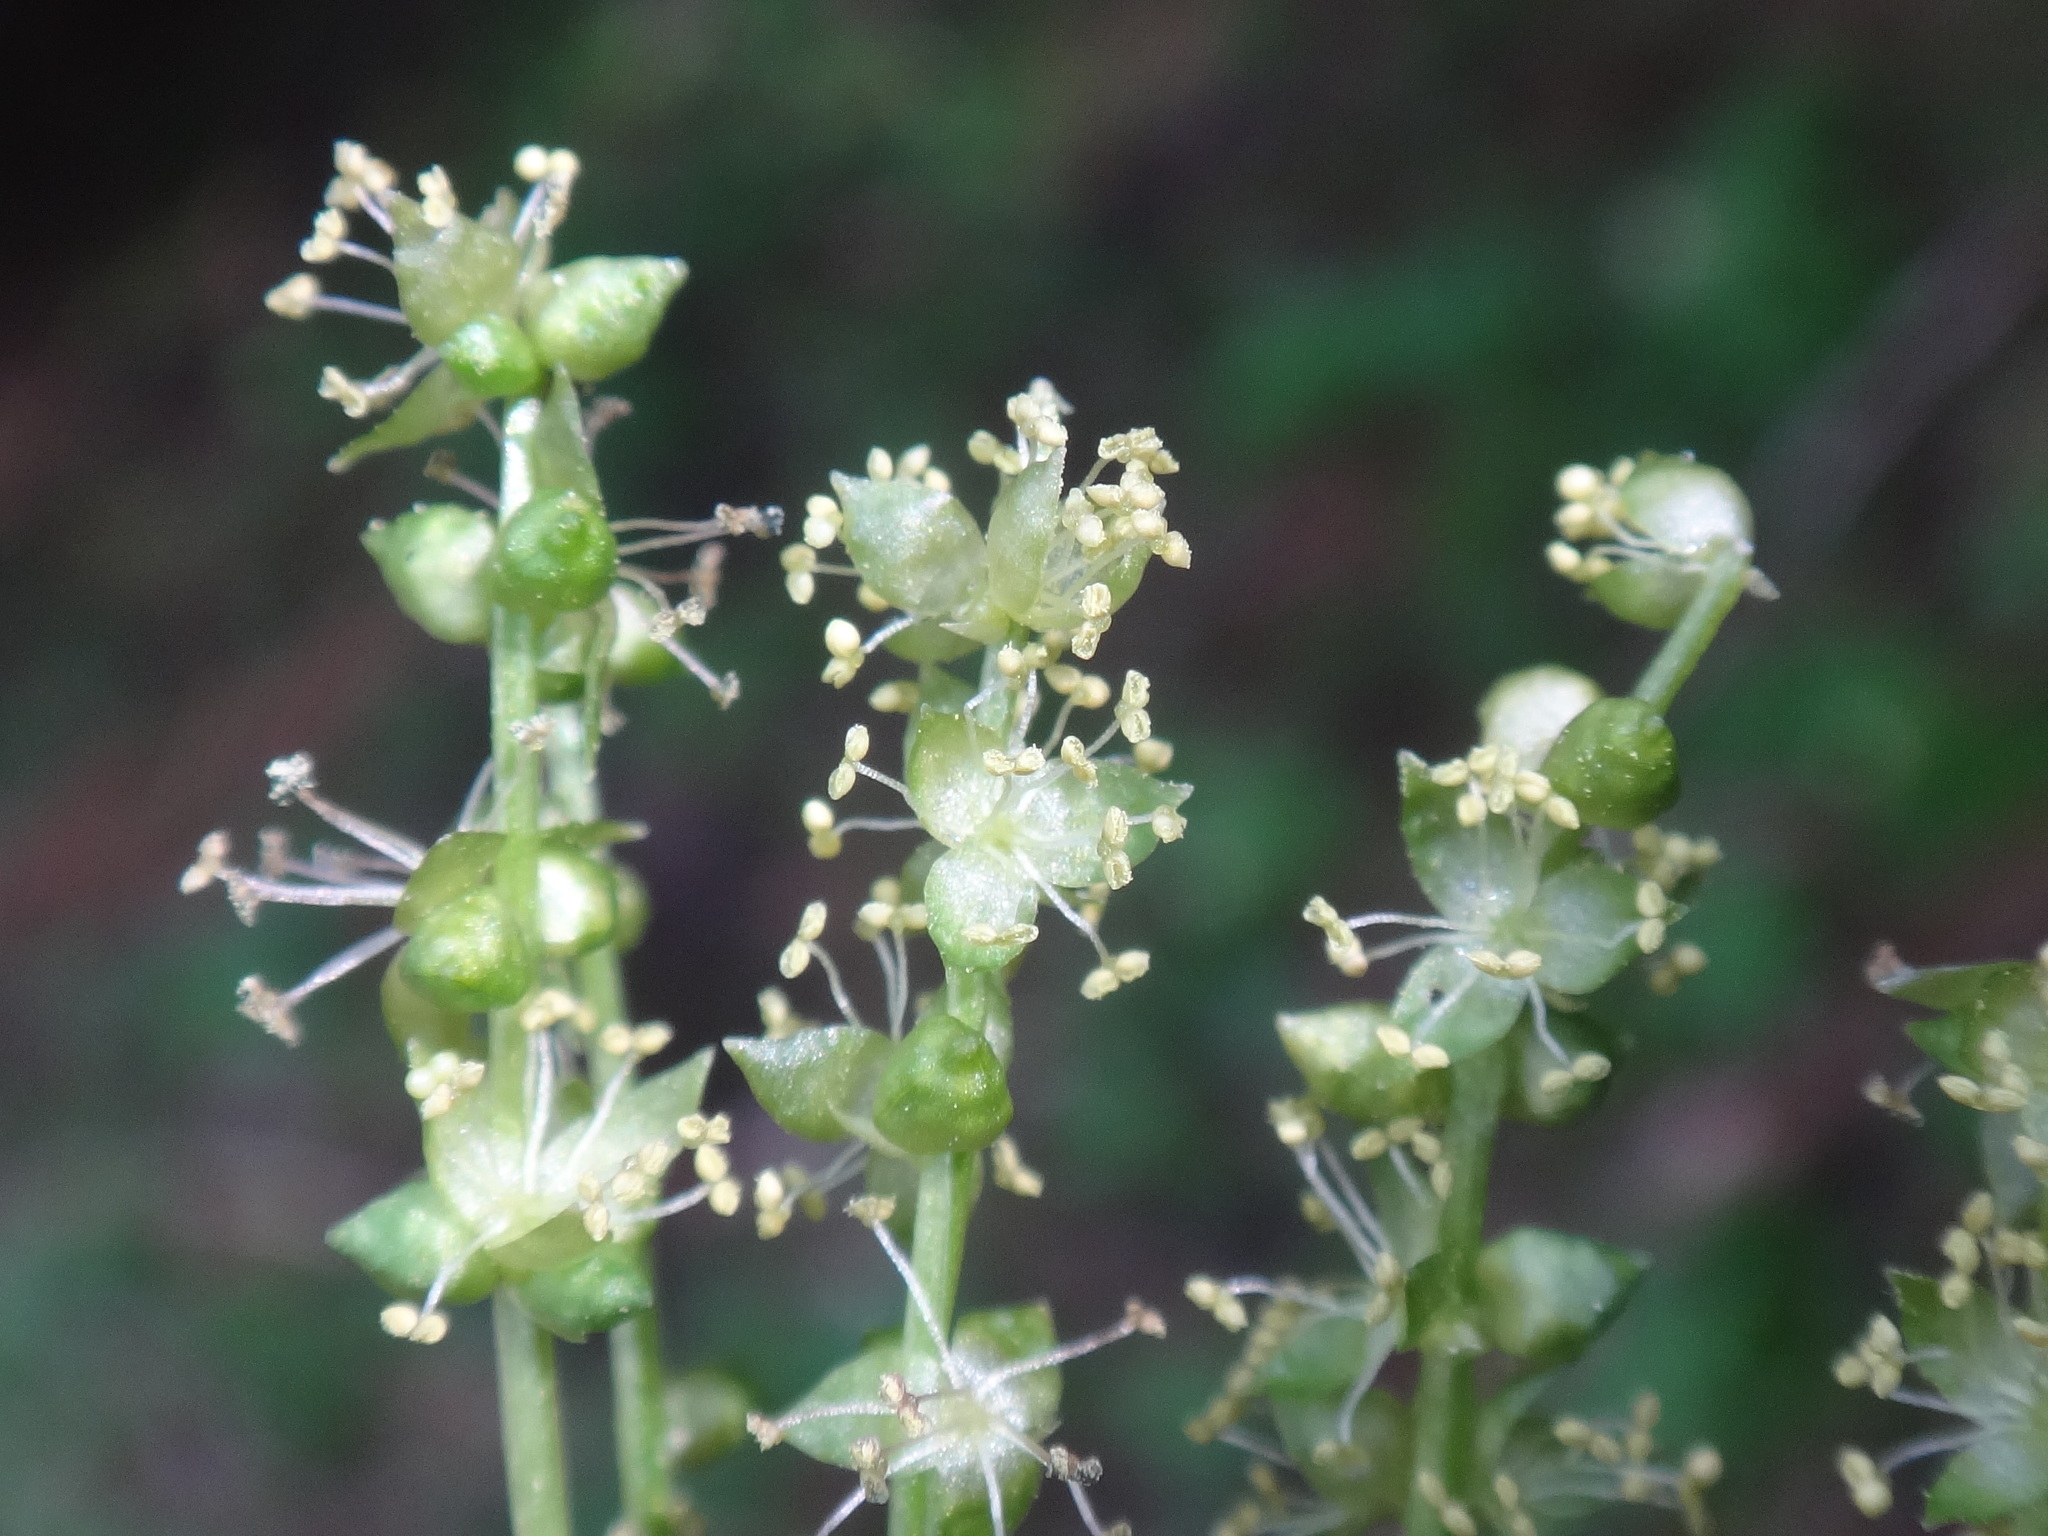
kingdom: Plantae
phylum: Tracheophyta
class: Magnoliopsida
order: Malpighiales
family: Euphorbiaceae
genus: Mercurialis
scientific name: Mercurialis perennis
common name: Dog mercury
